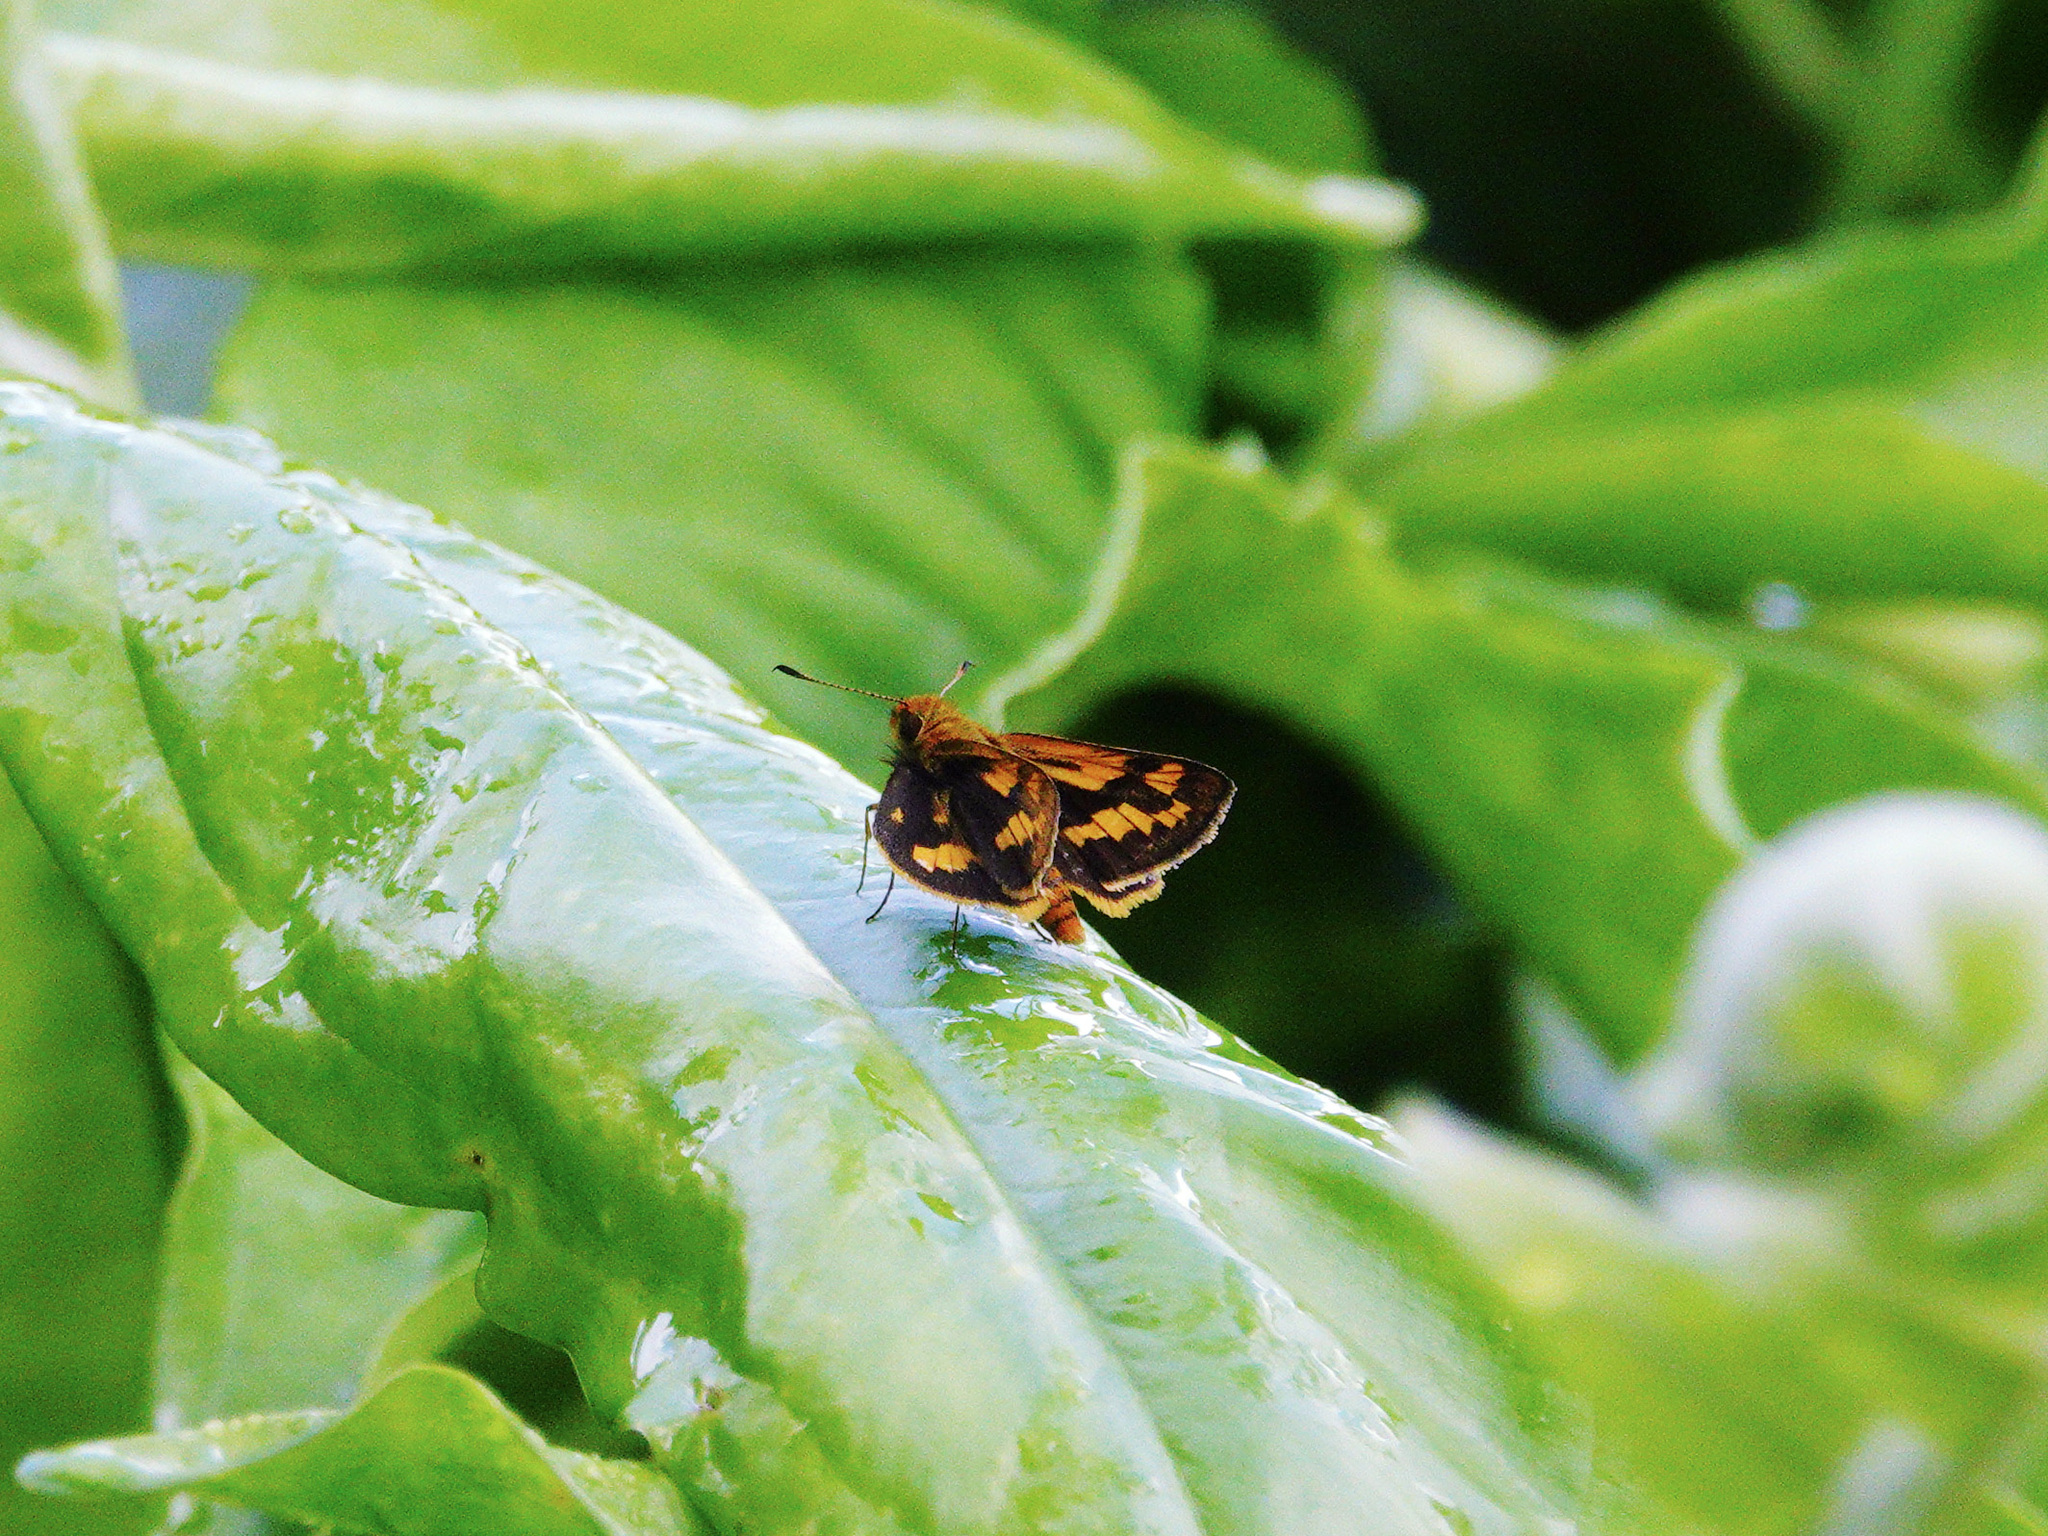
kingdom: Animalia
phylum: Arthropoda
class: Insecta
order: Lepidoptera
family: Hesperiidae
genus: Potanthus
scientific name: Potanthus omaha
